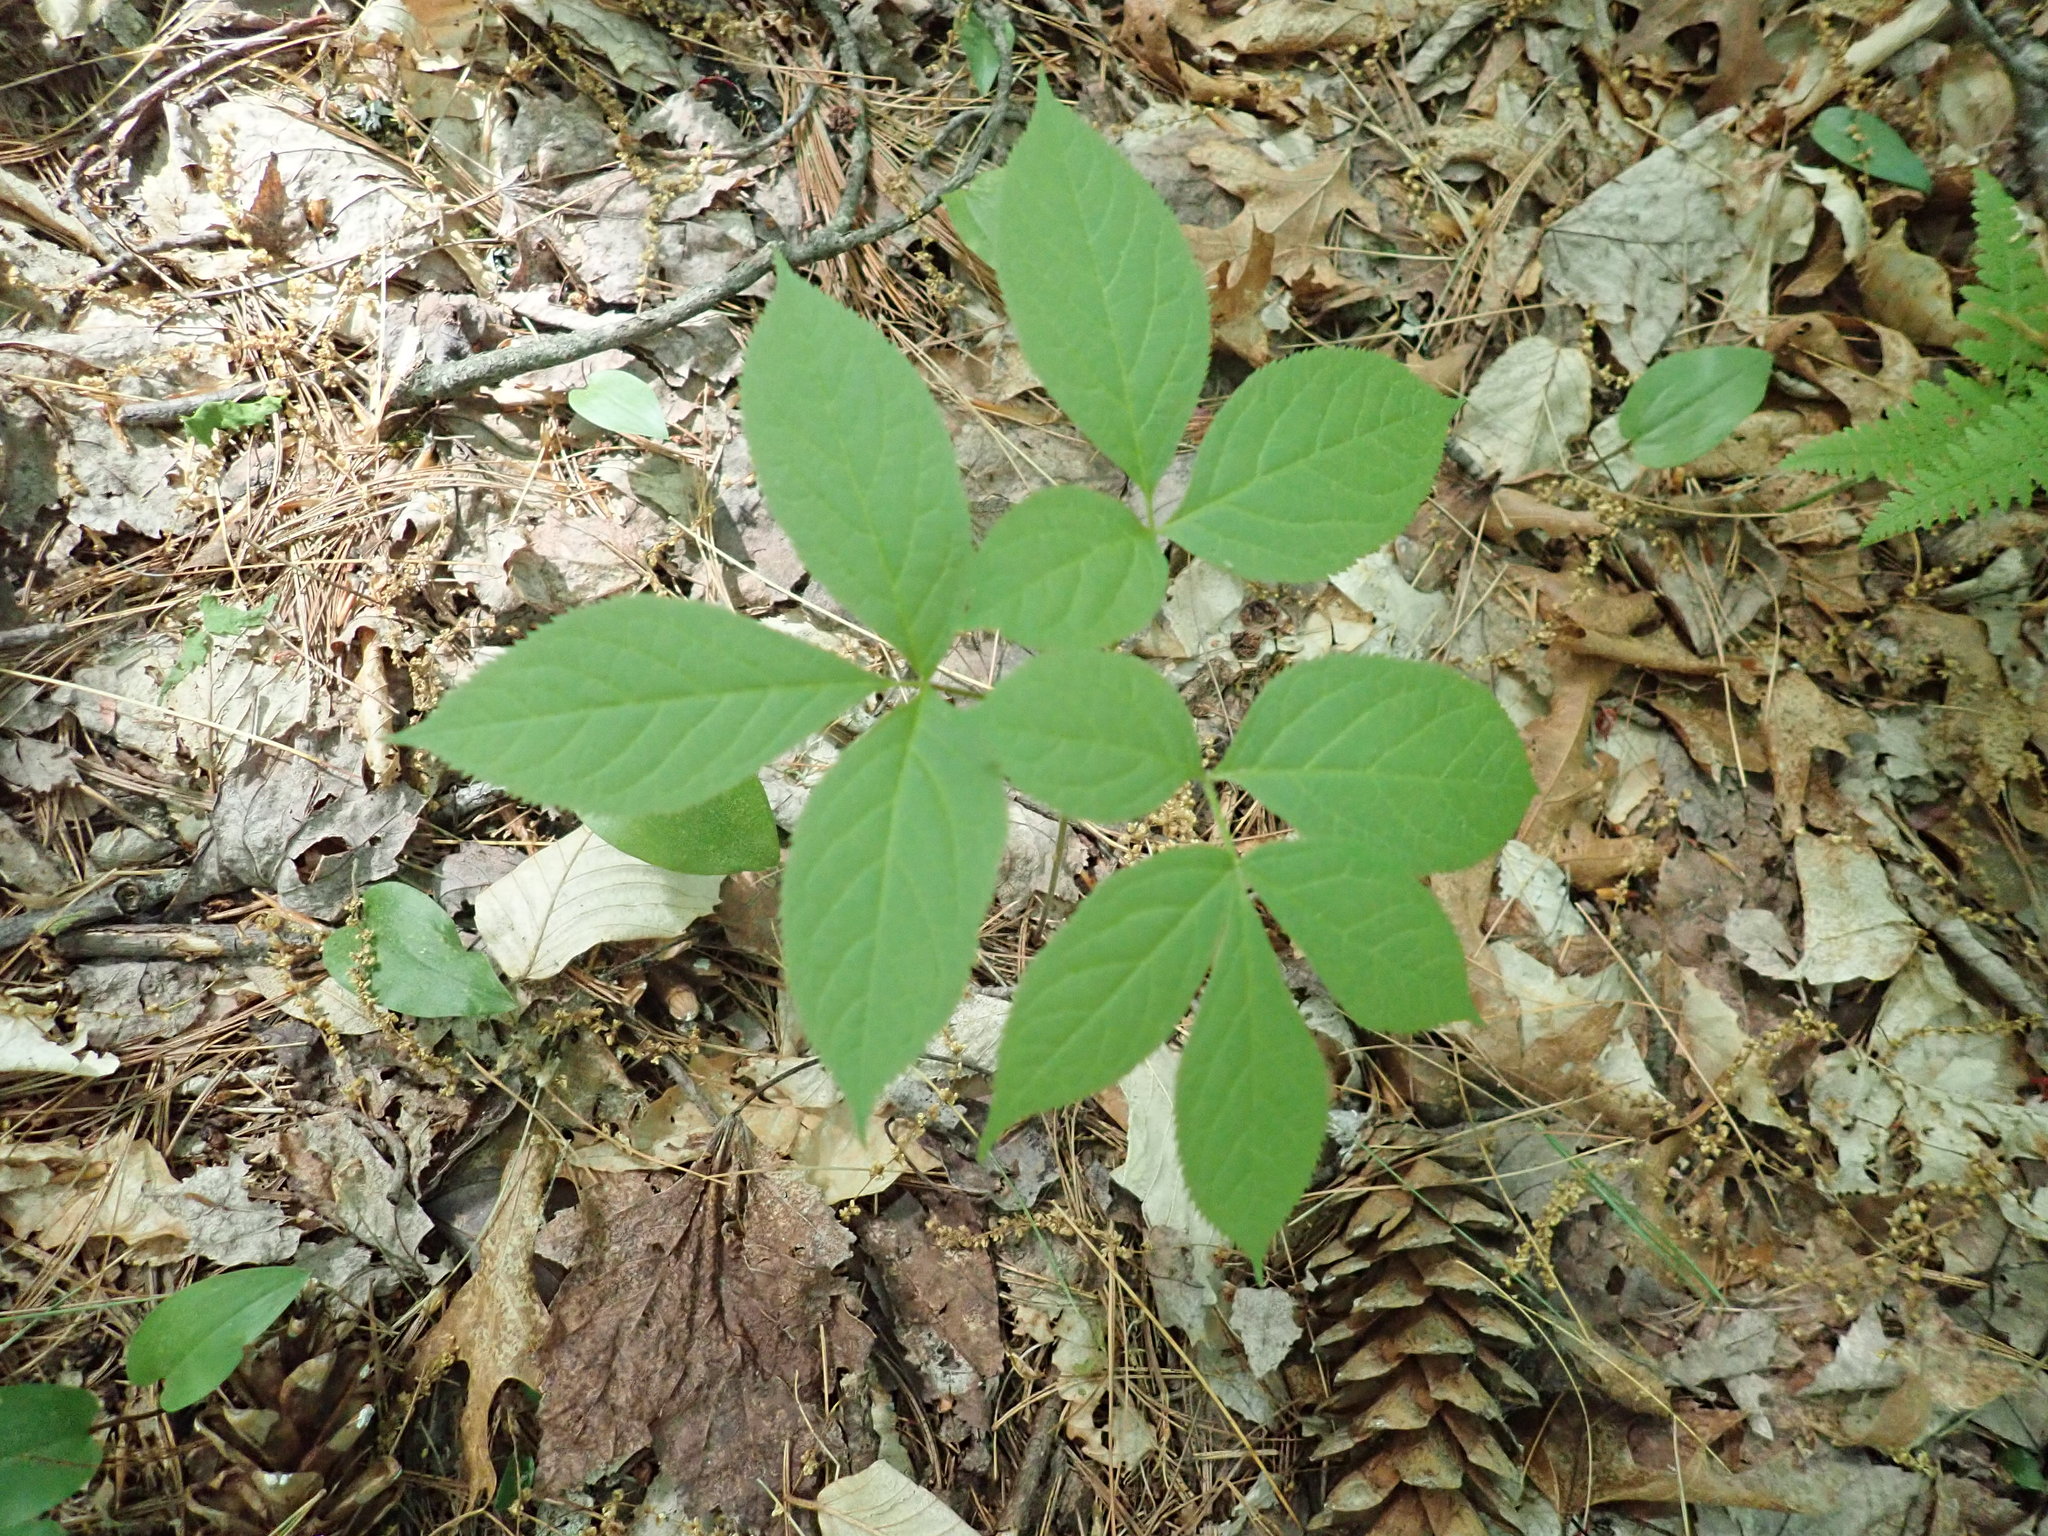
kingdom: Plantae
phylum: Tracheophyta
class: Magnoliopsida
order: Apiales
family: Araliaceae
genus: Aralia
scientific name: Aralia nudicaulis
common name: Wild sarsaparilla
